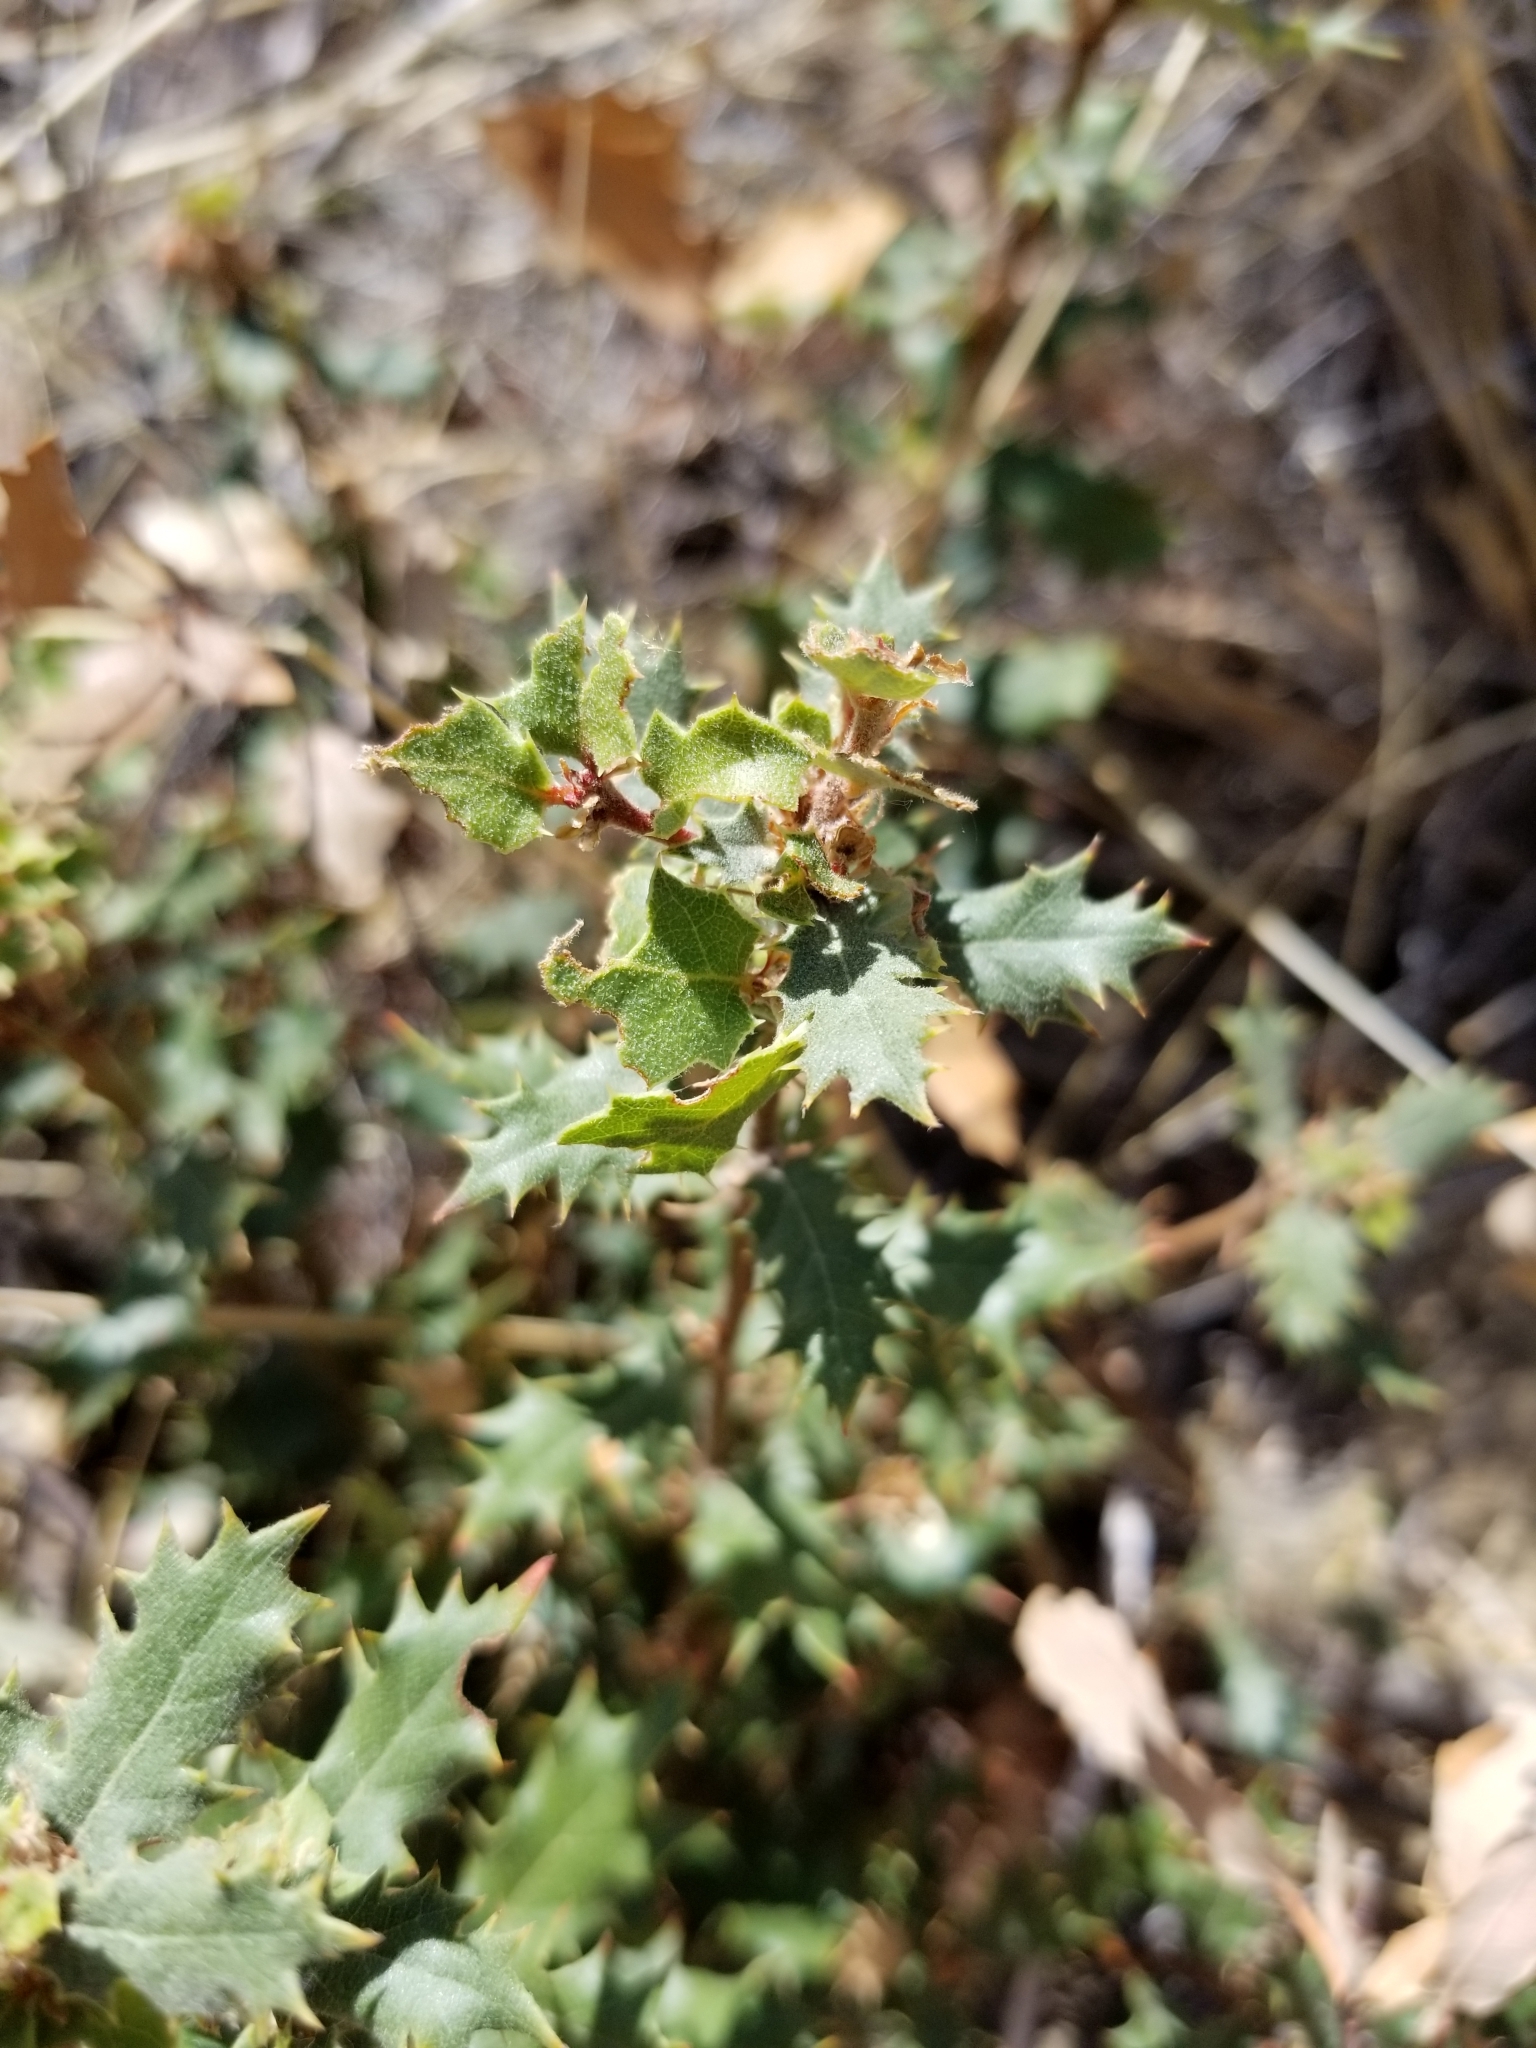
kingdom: Plantae
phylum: Tracheophyta
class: Magnoliopsida
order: Fagales
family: Fagaceae
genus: Quercus
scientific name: Quercus cornelius-mulleri
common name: Muller oak
